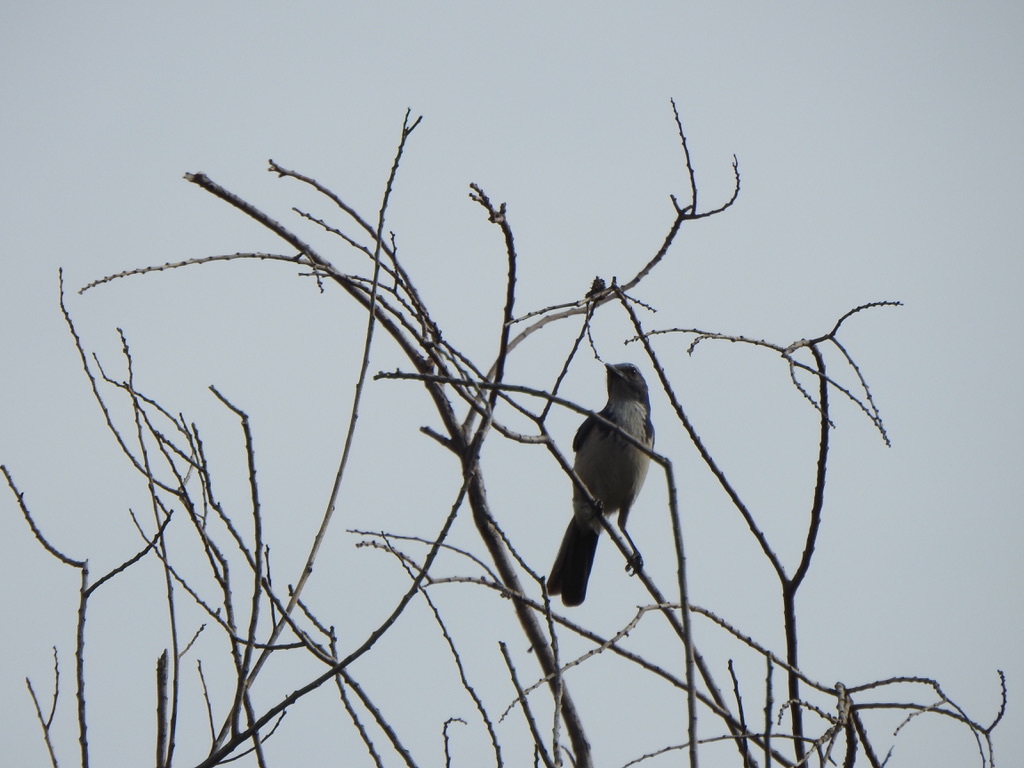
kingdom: Animalia
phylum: Chordata
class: Aves
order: Passeriformes
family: Corvidae
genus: Aphelocoma
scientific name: Aphelocoma californica
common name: California scrub-jay
